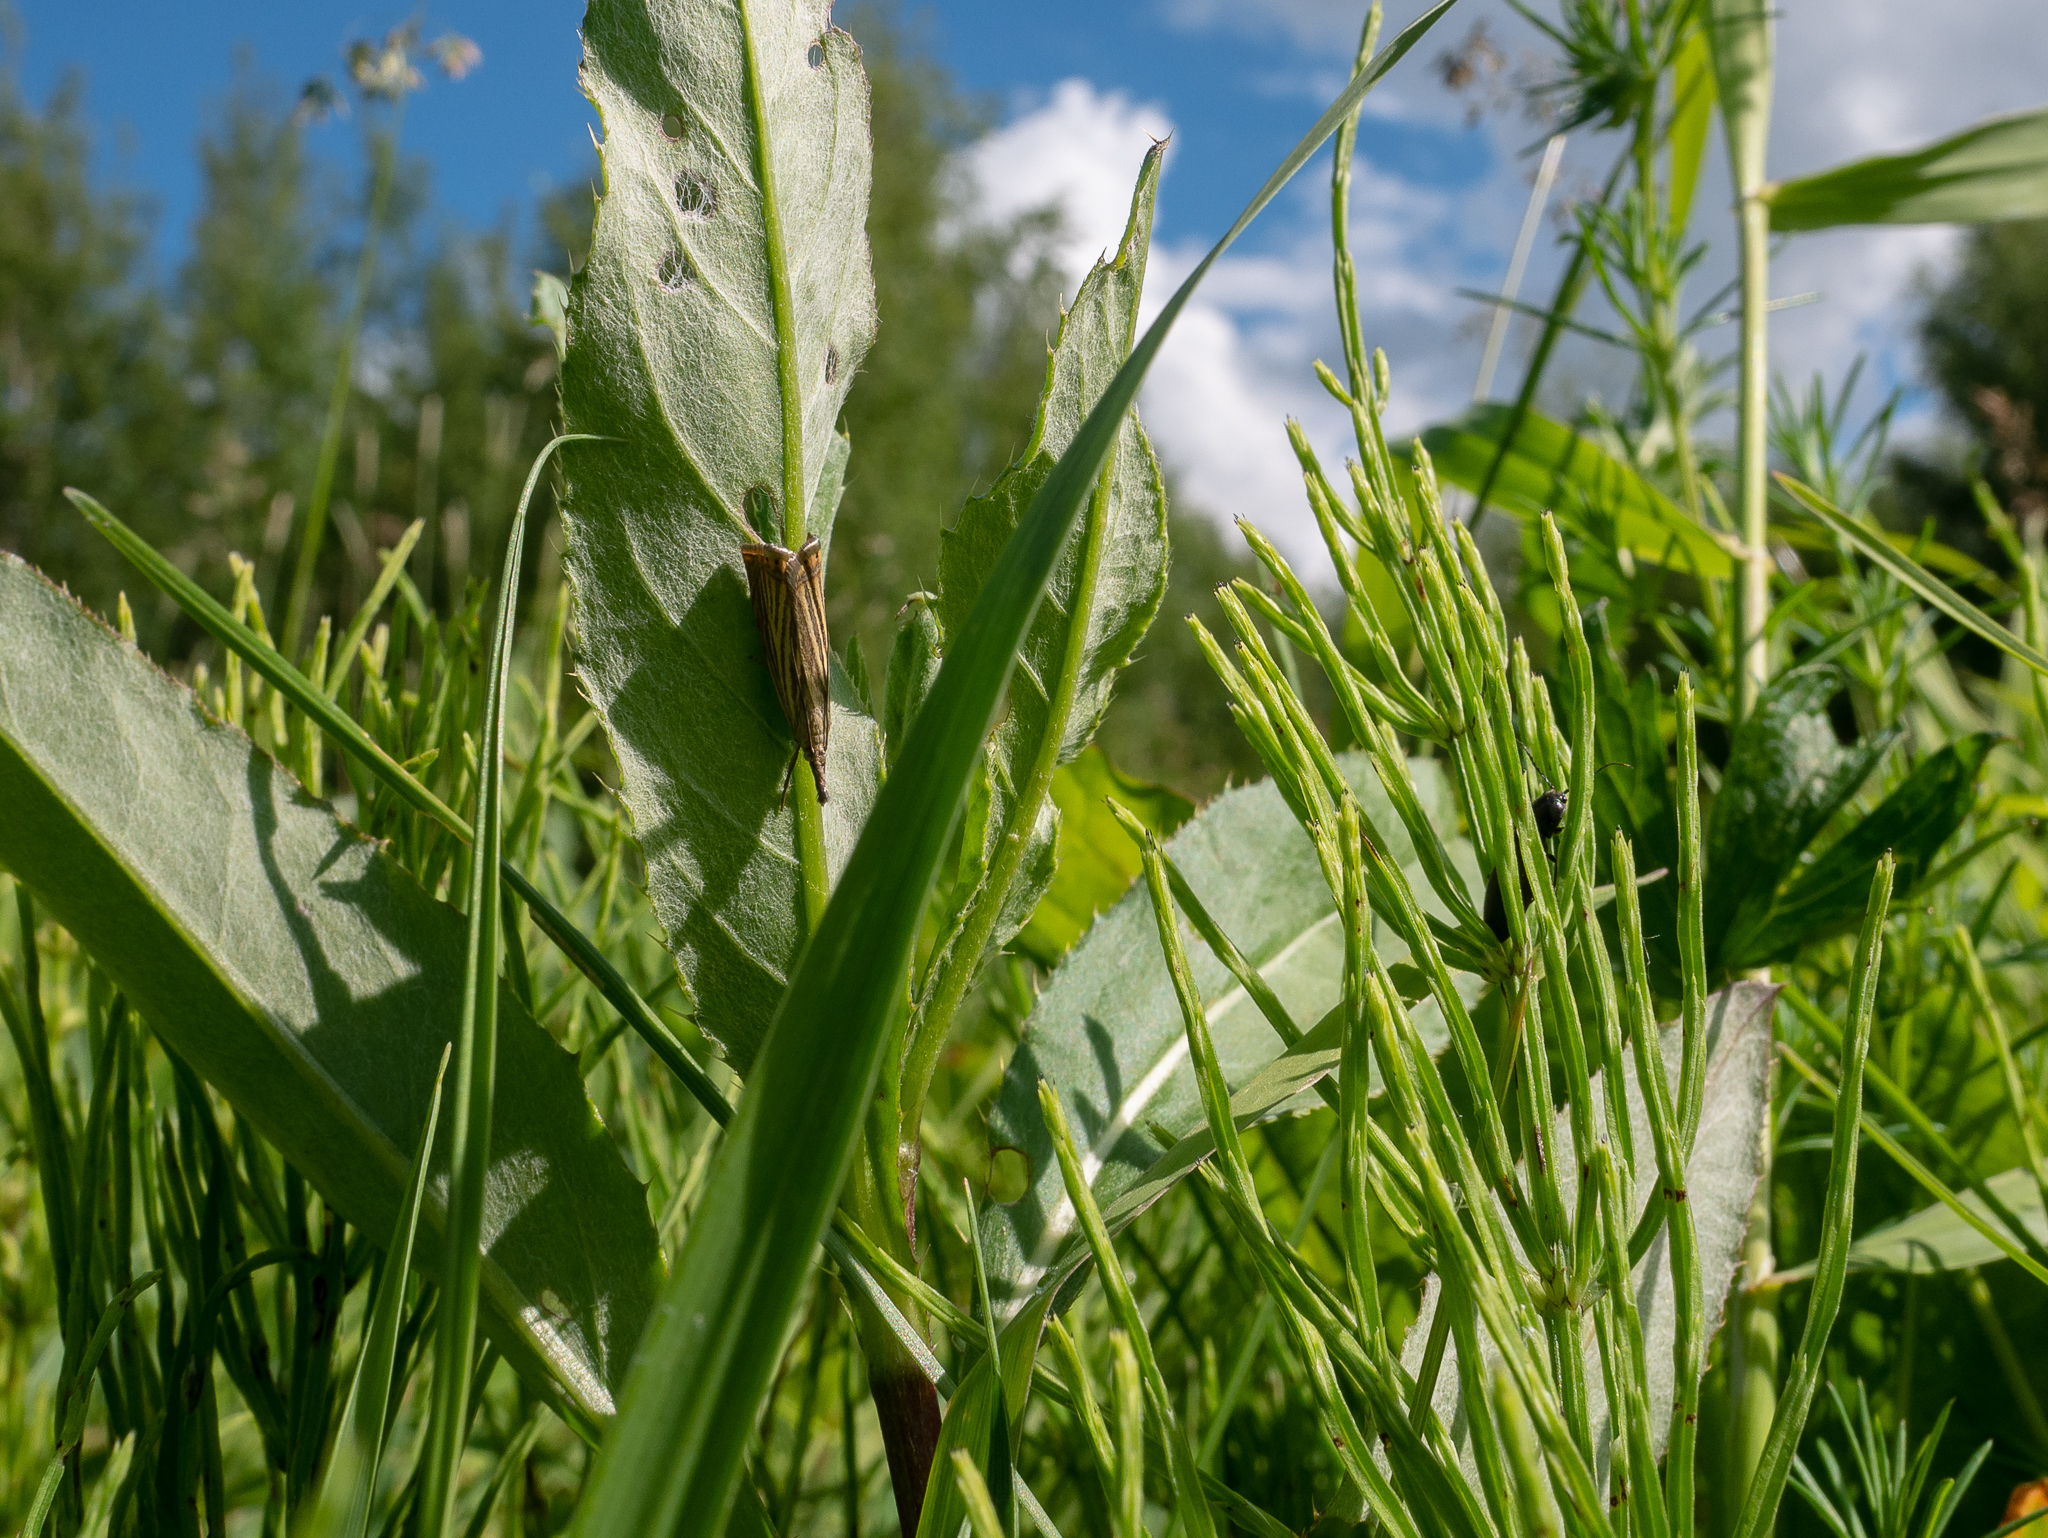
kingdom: Animalia
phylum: Arthropoda
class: Insecta
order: Lepidoptera
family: Crambidae
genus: Chrysoteuchia
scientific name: Chrysoteuchia culmella
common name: Garden grass-veneer
